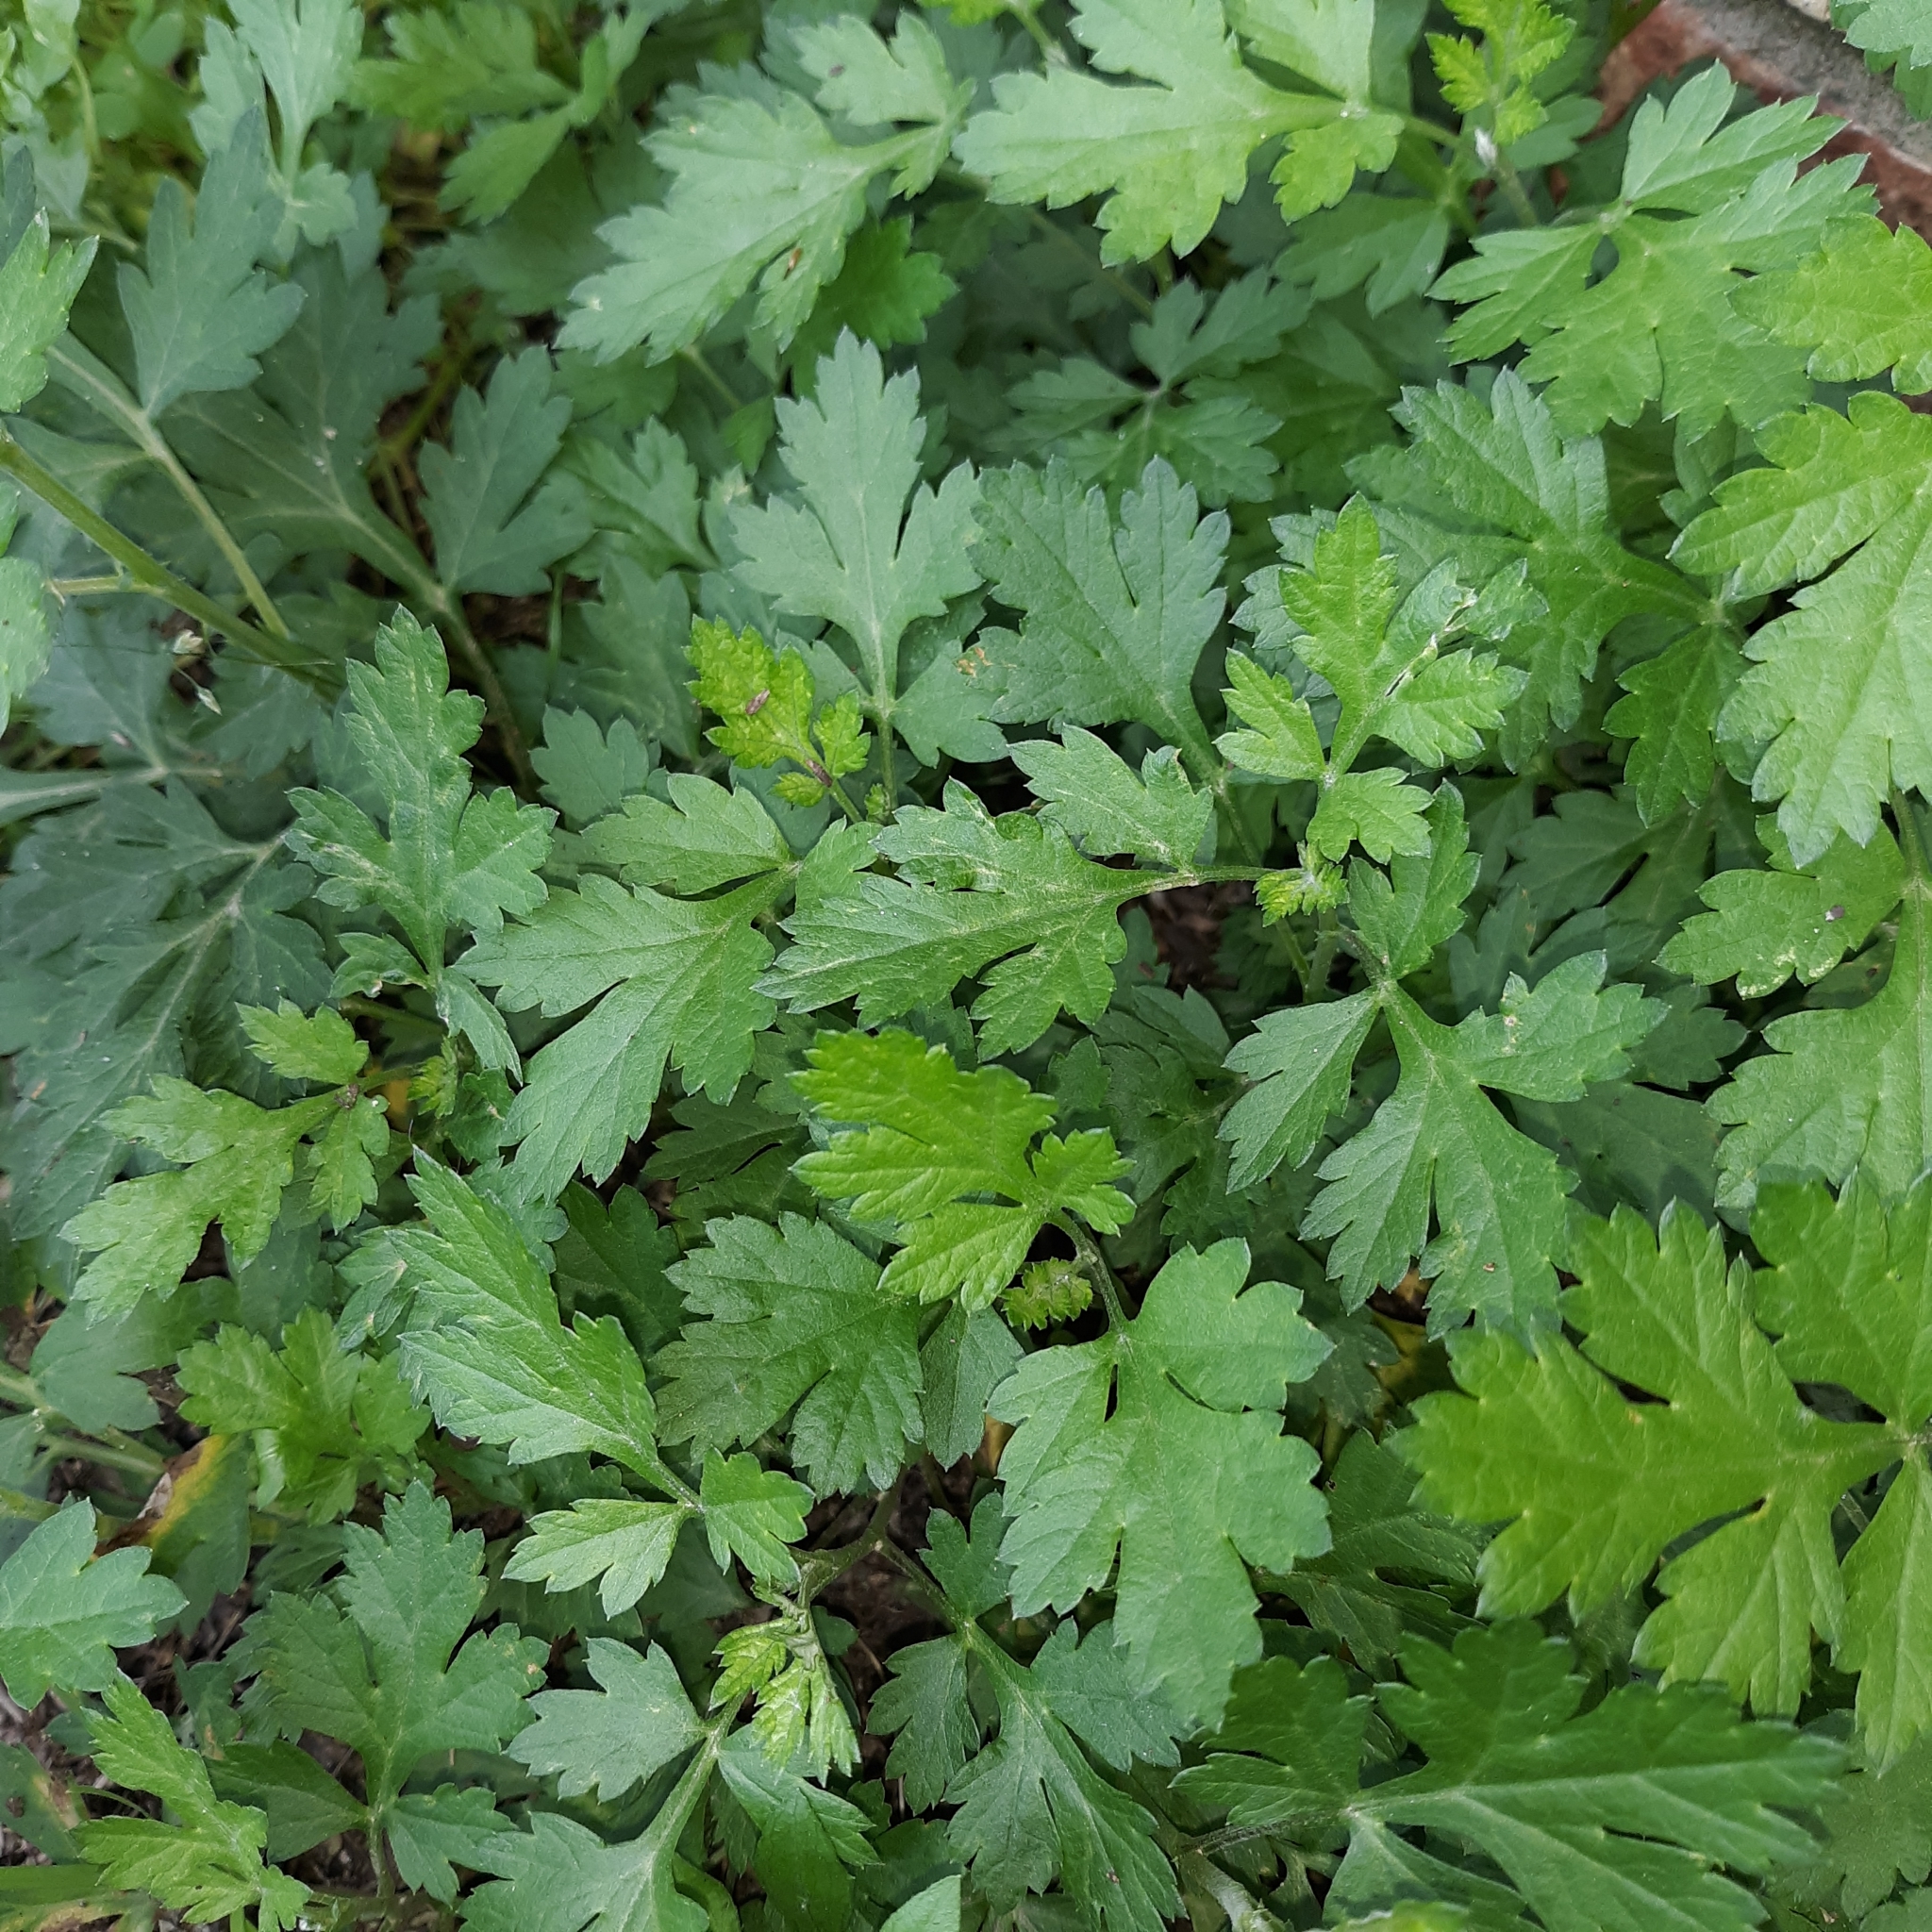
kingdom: Plantae
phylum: Tracheophyta
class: Magnoliopsida
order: Asterales
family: Asteraceae
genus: Artemisia
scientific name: Artemisia vulgaris
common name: Mugwort
